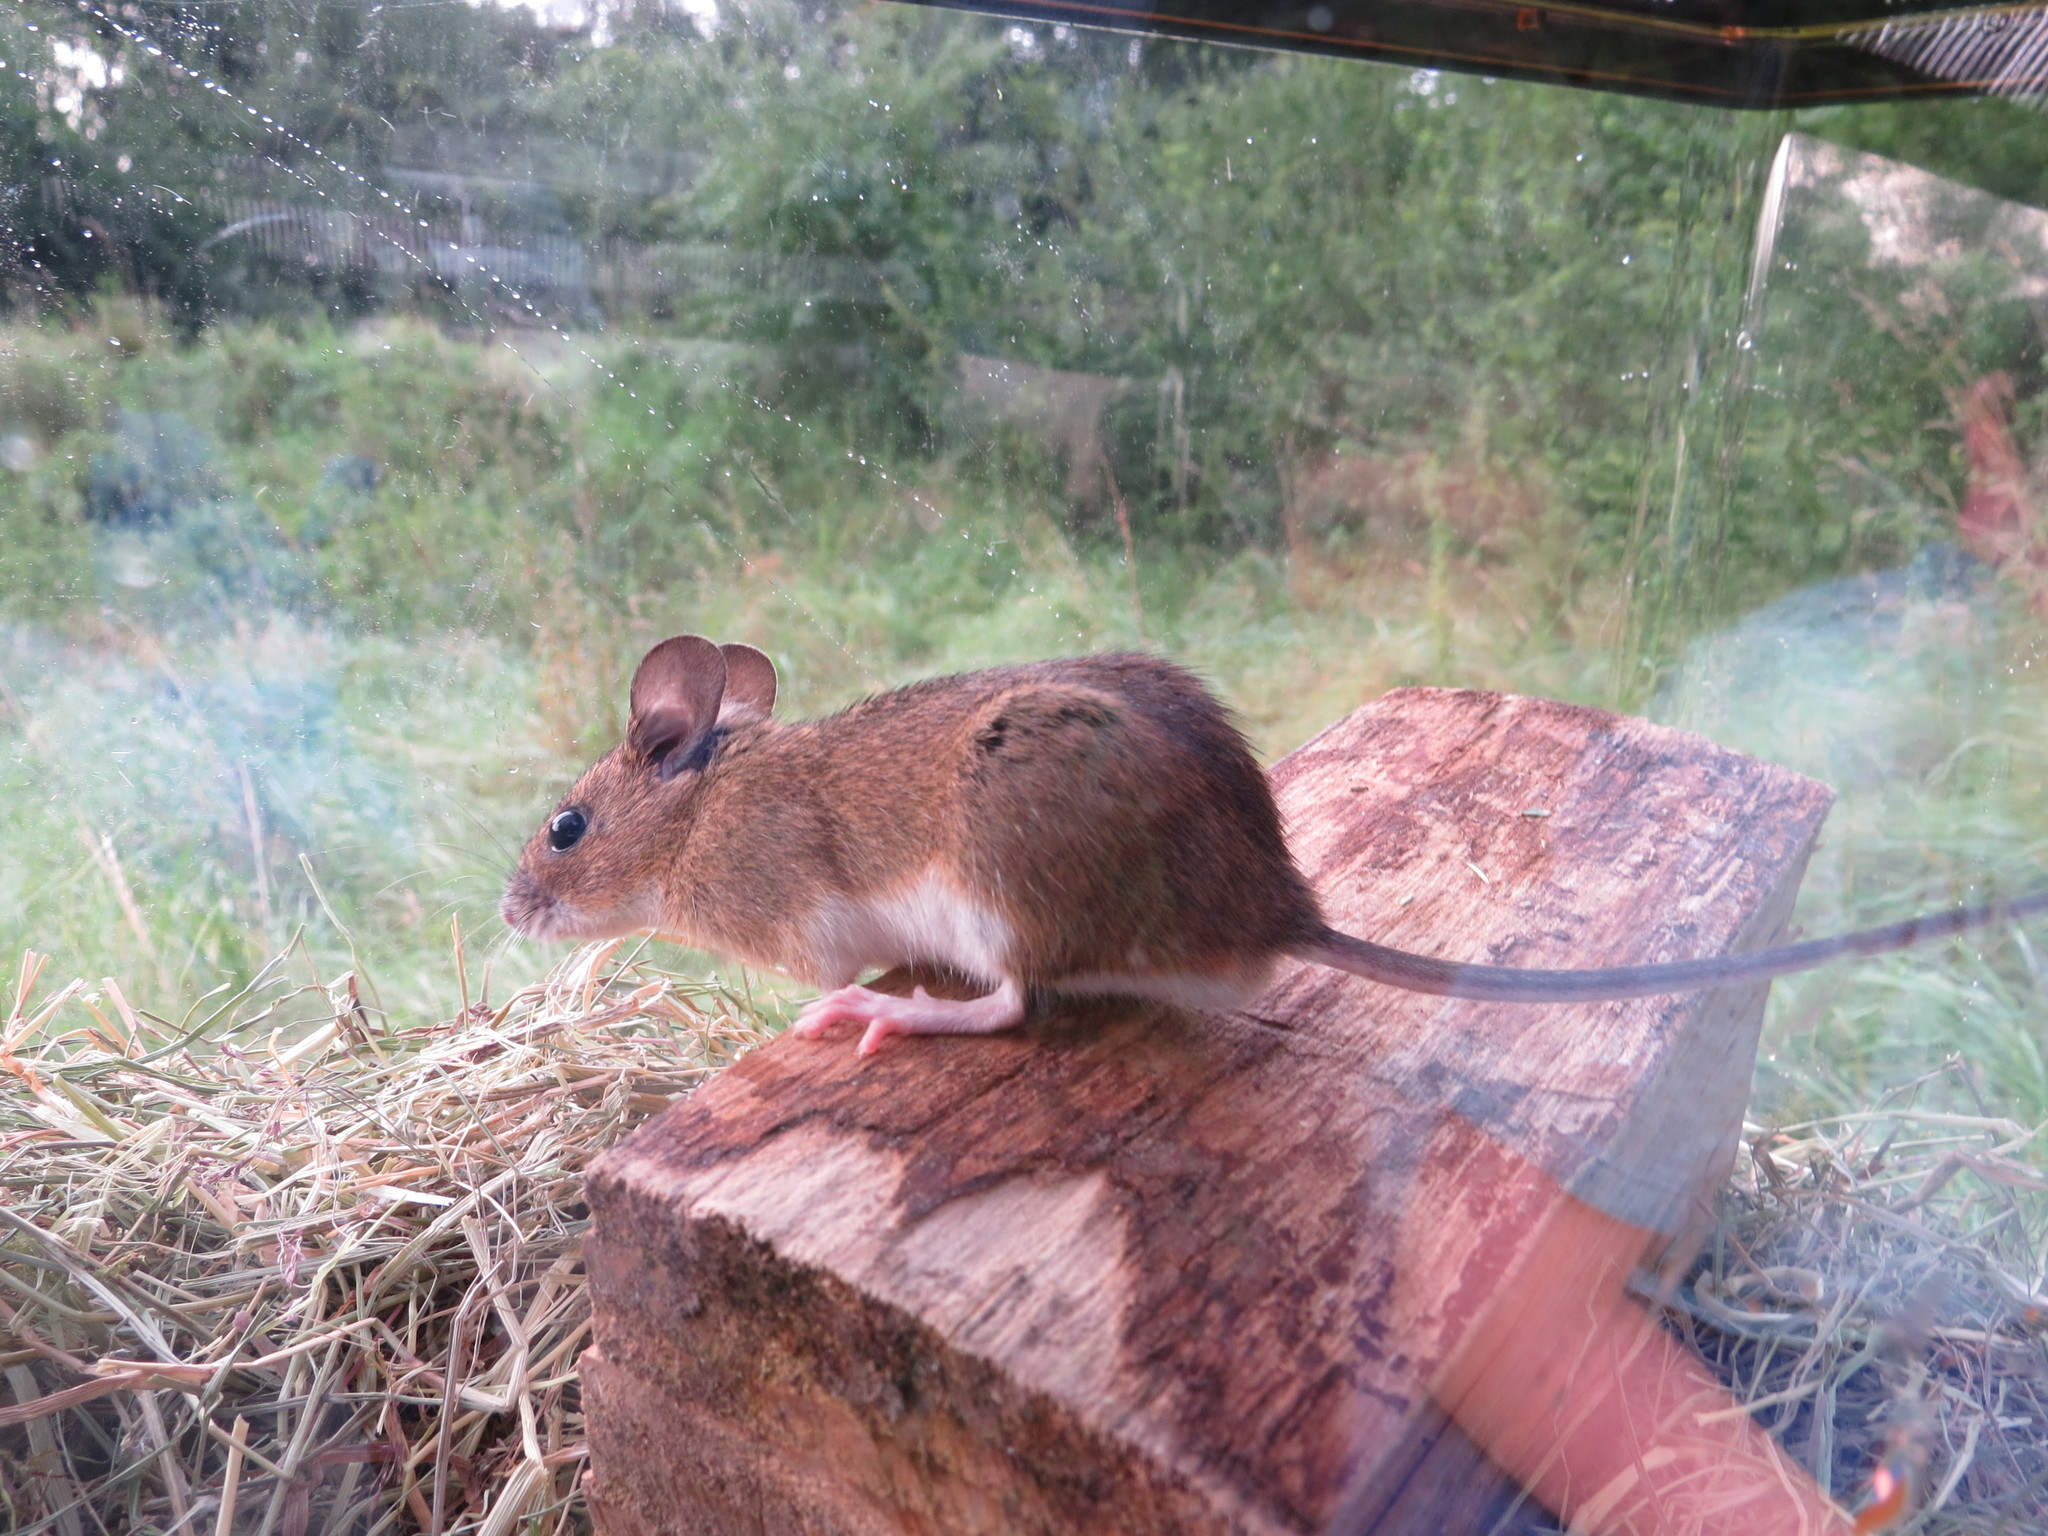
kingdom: Animalia
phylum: Chordata
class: Mammalia
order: Rodentia
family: Muridae
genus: Apodemus
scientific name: Apodemus flavicollis
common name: Yellow-necked field mouse
